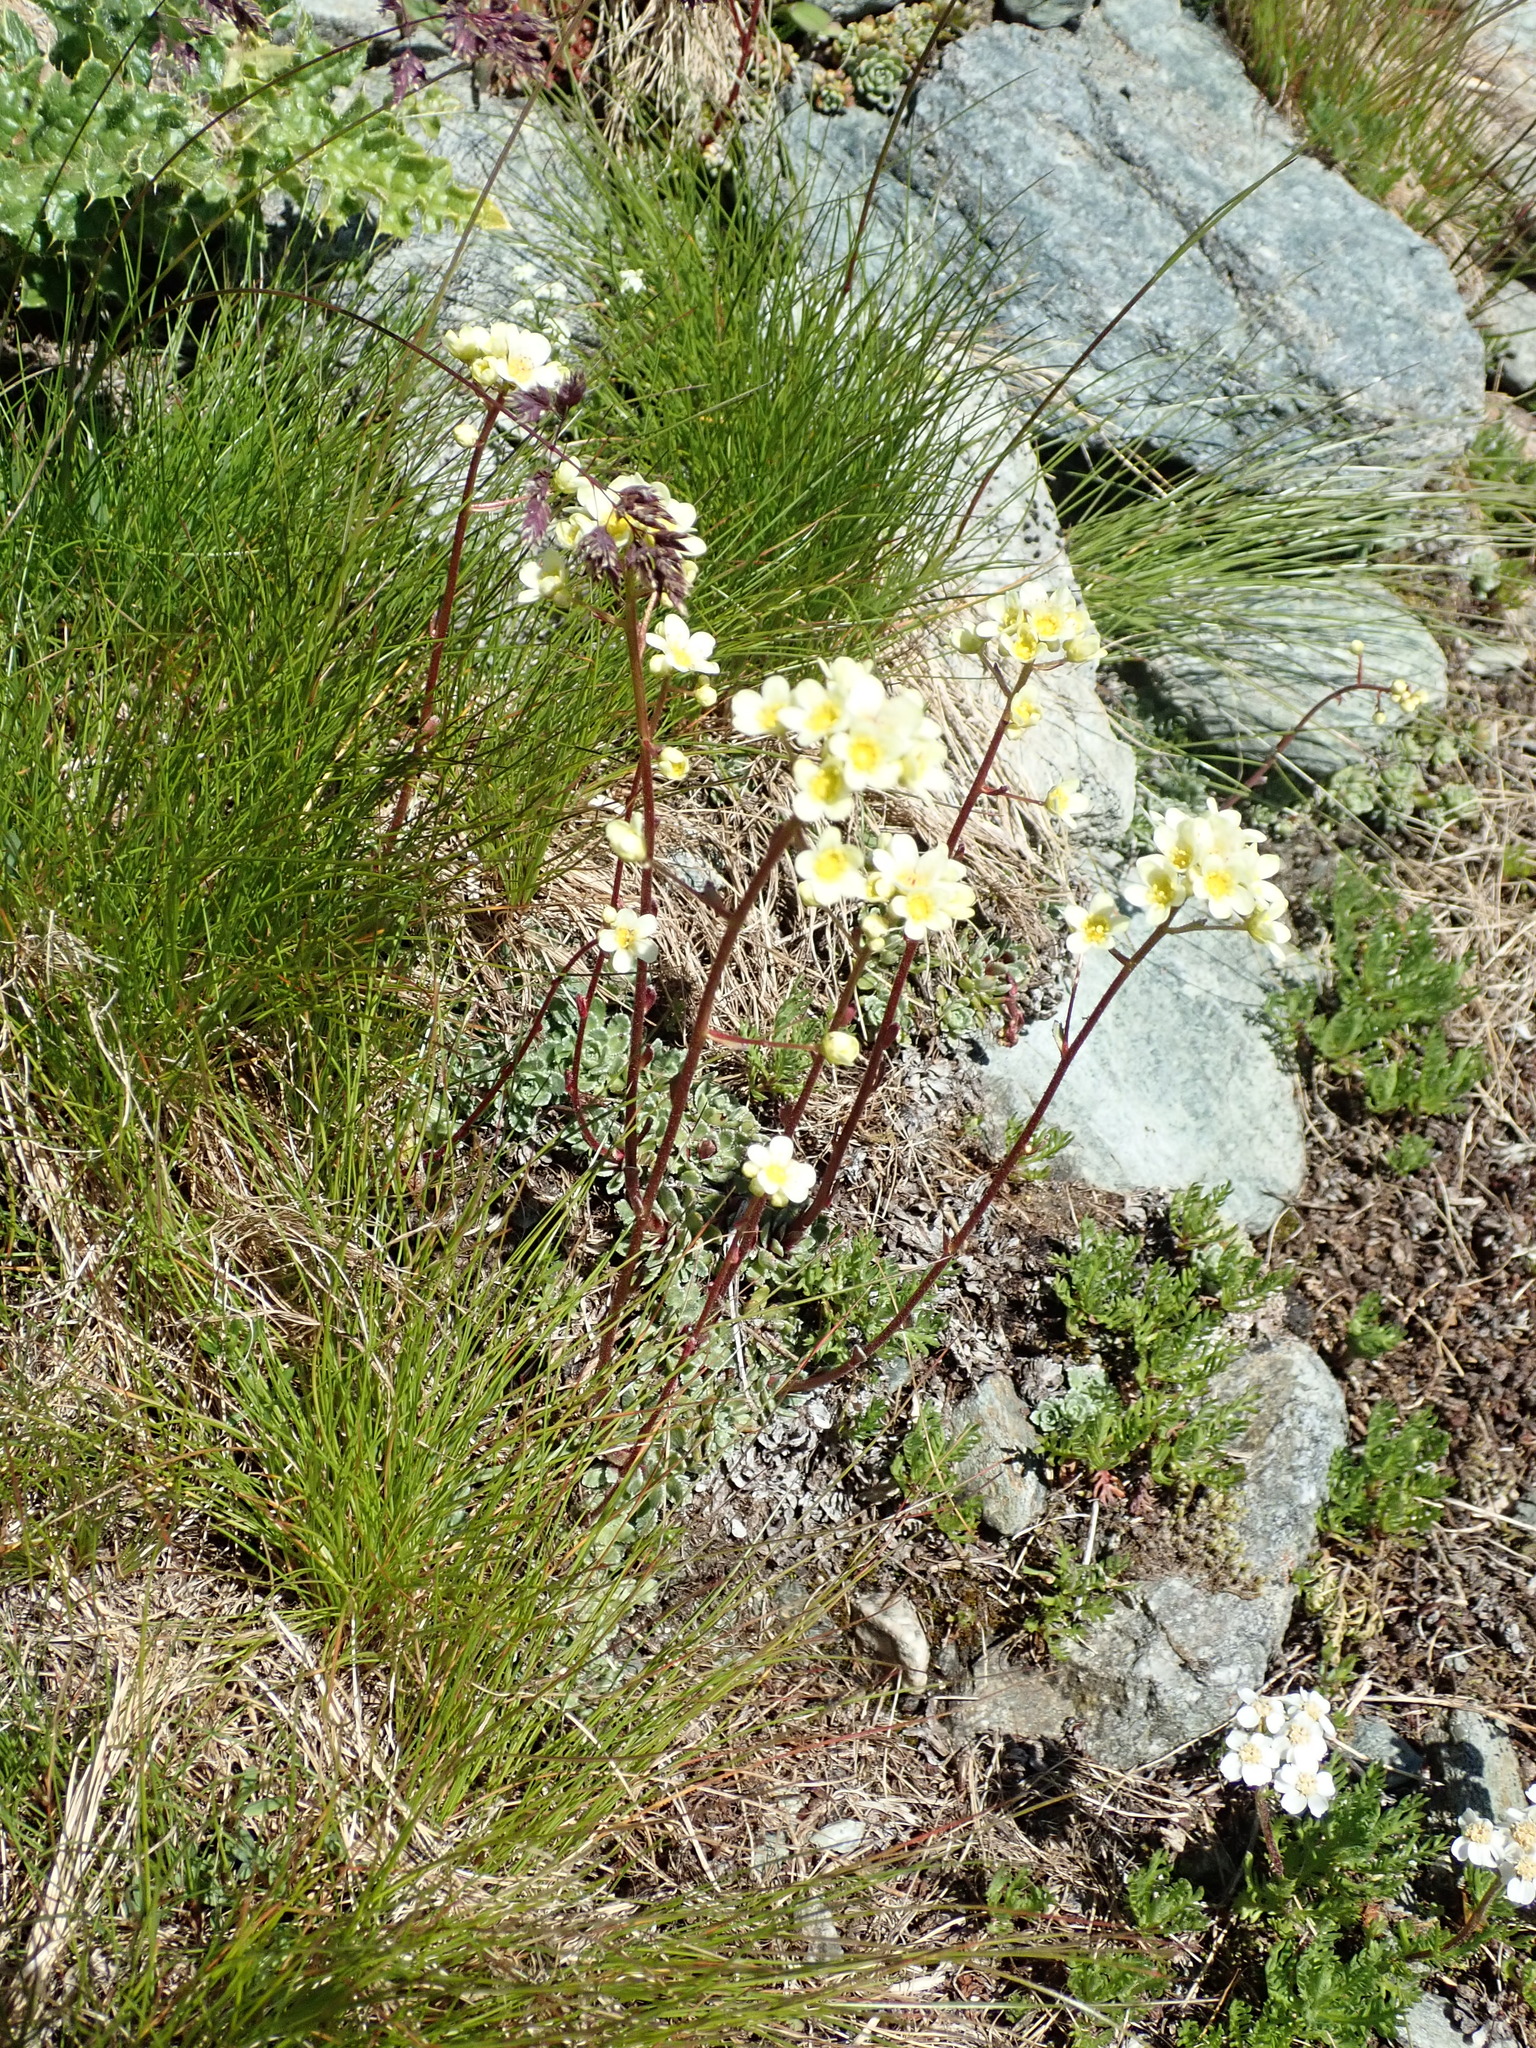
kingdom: Plantae
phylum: Tracheophyta
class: Magnoliopsida
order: Saxifragales
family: Saxifragaceae
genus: Saxifraga
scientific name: Saxifraga paniculata
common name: Livelong saxifrage
